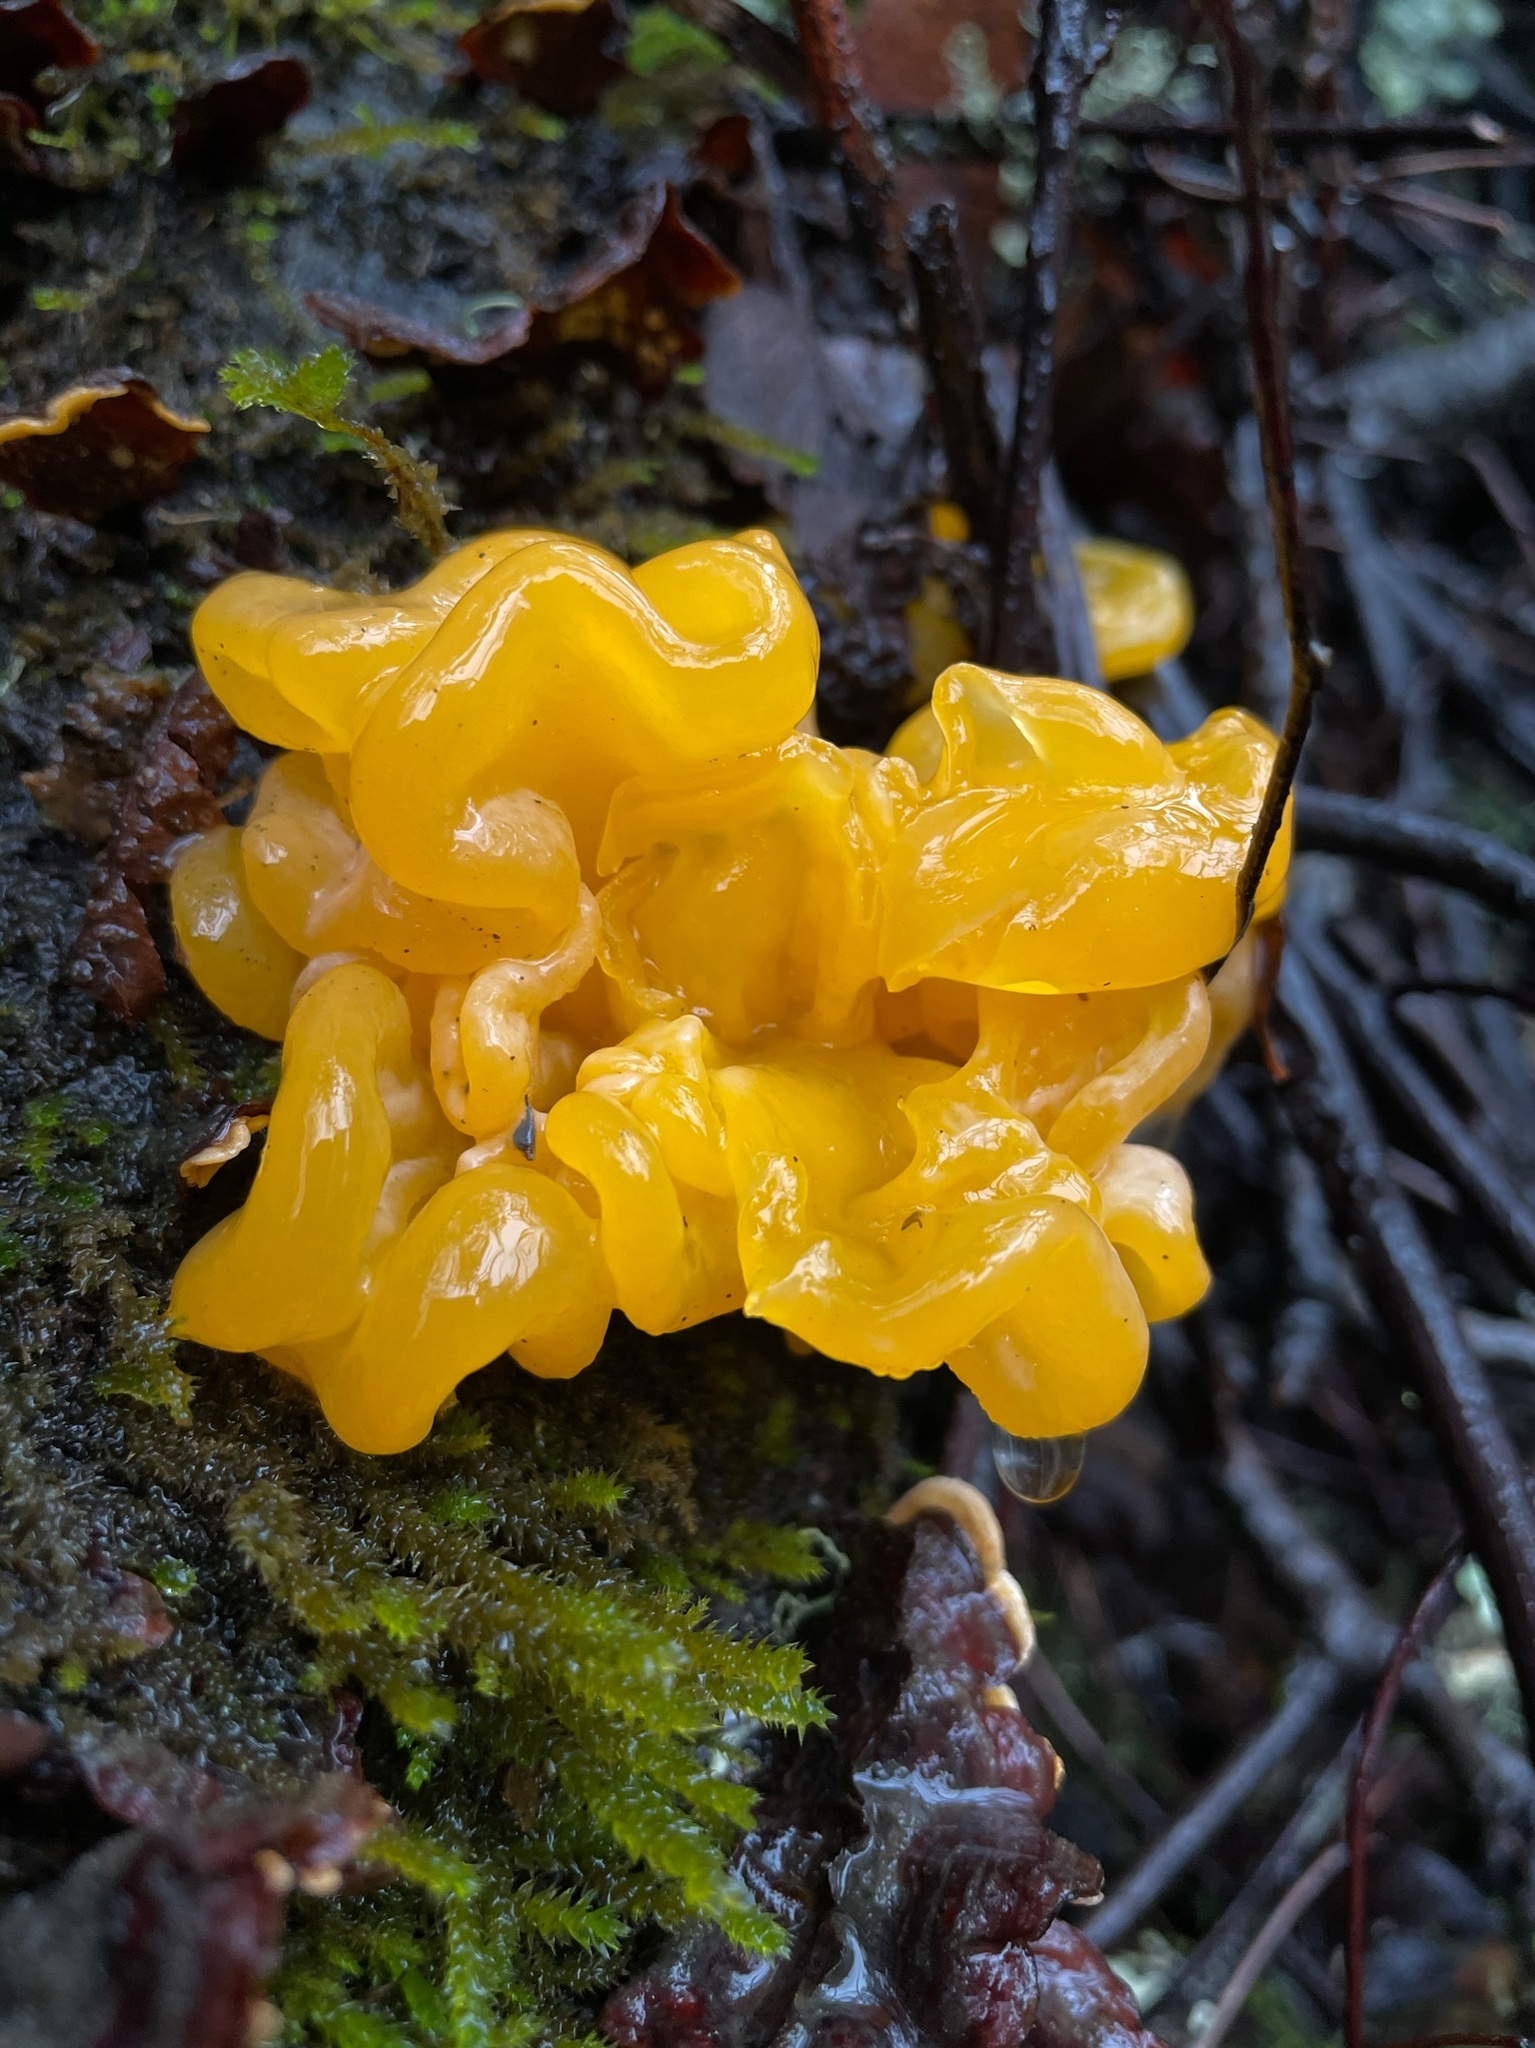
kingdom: Fungi
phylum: Basidiomycota
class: Tremellomycetes
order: Tremellales
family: Naemateliaceae
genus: Naematelia
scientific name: Naematelia aurantia
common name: Golden ear
